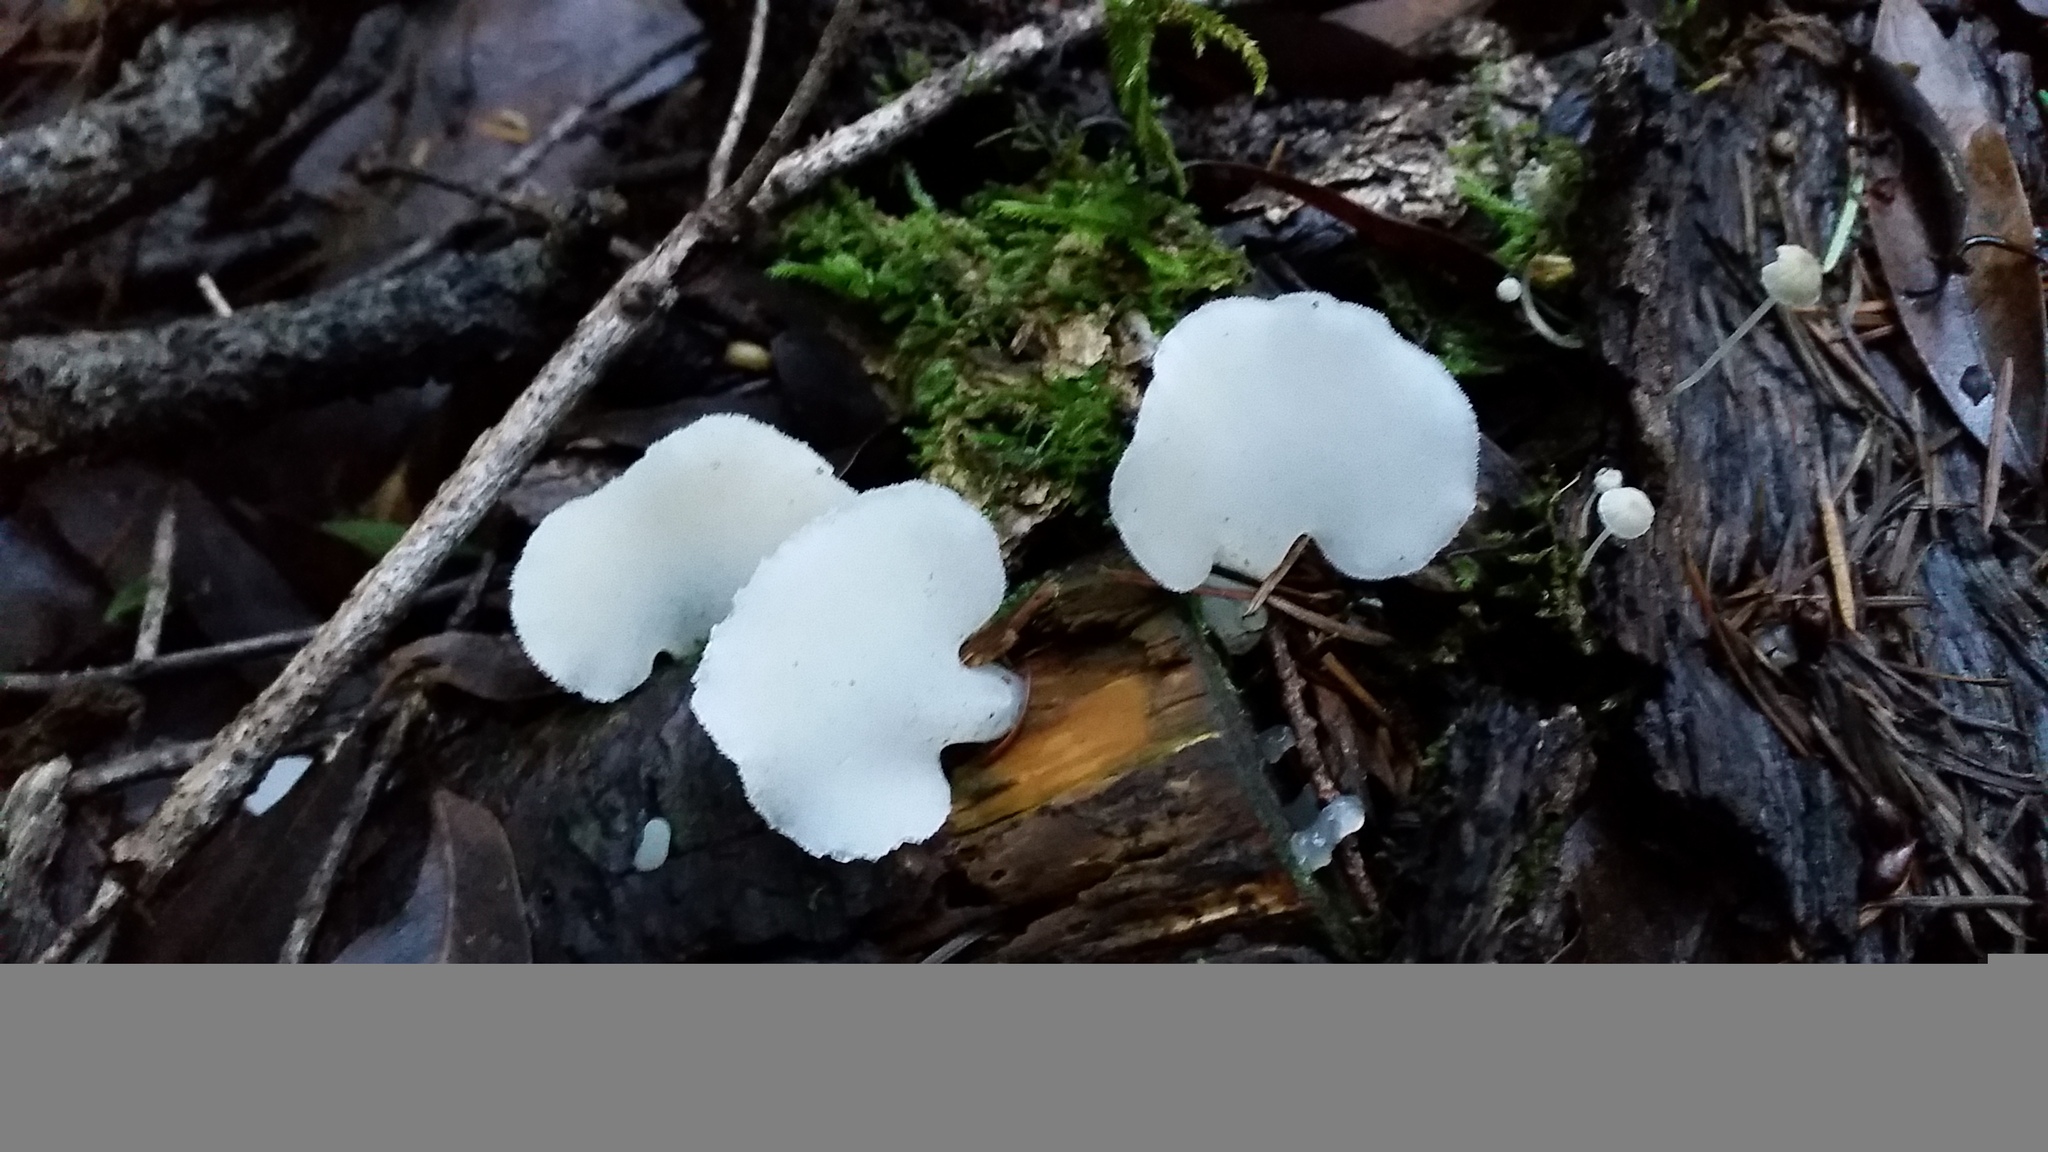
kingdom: Fungi
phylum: Basidiomycota
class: Agaricomycetes
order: Auriculariales
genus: Pseudohydnum
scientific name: Pseudohydnum gelatinosum
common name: Jelly tongue
